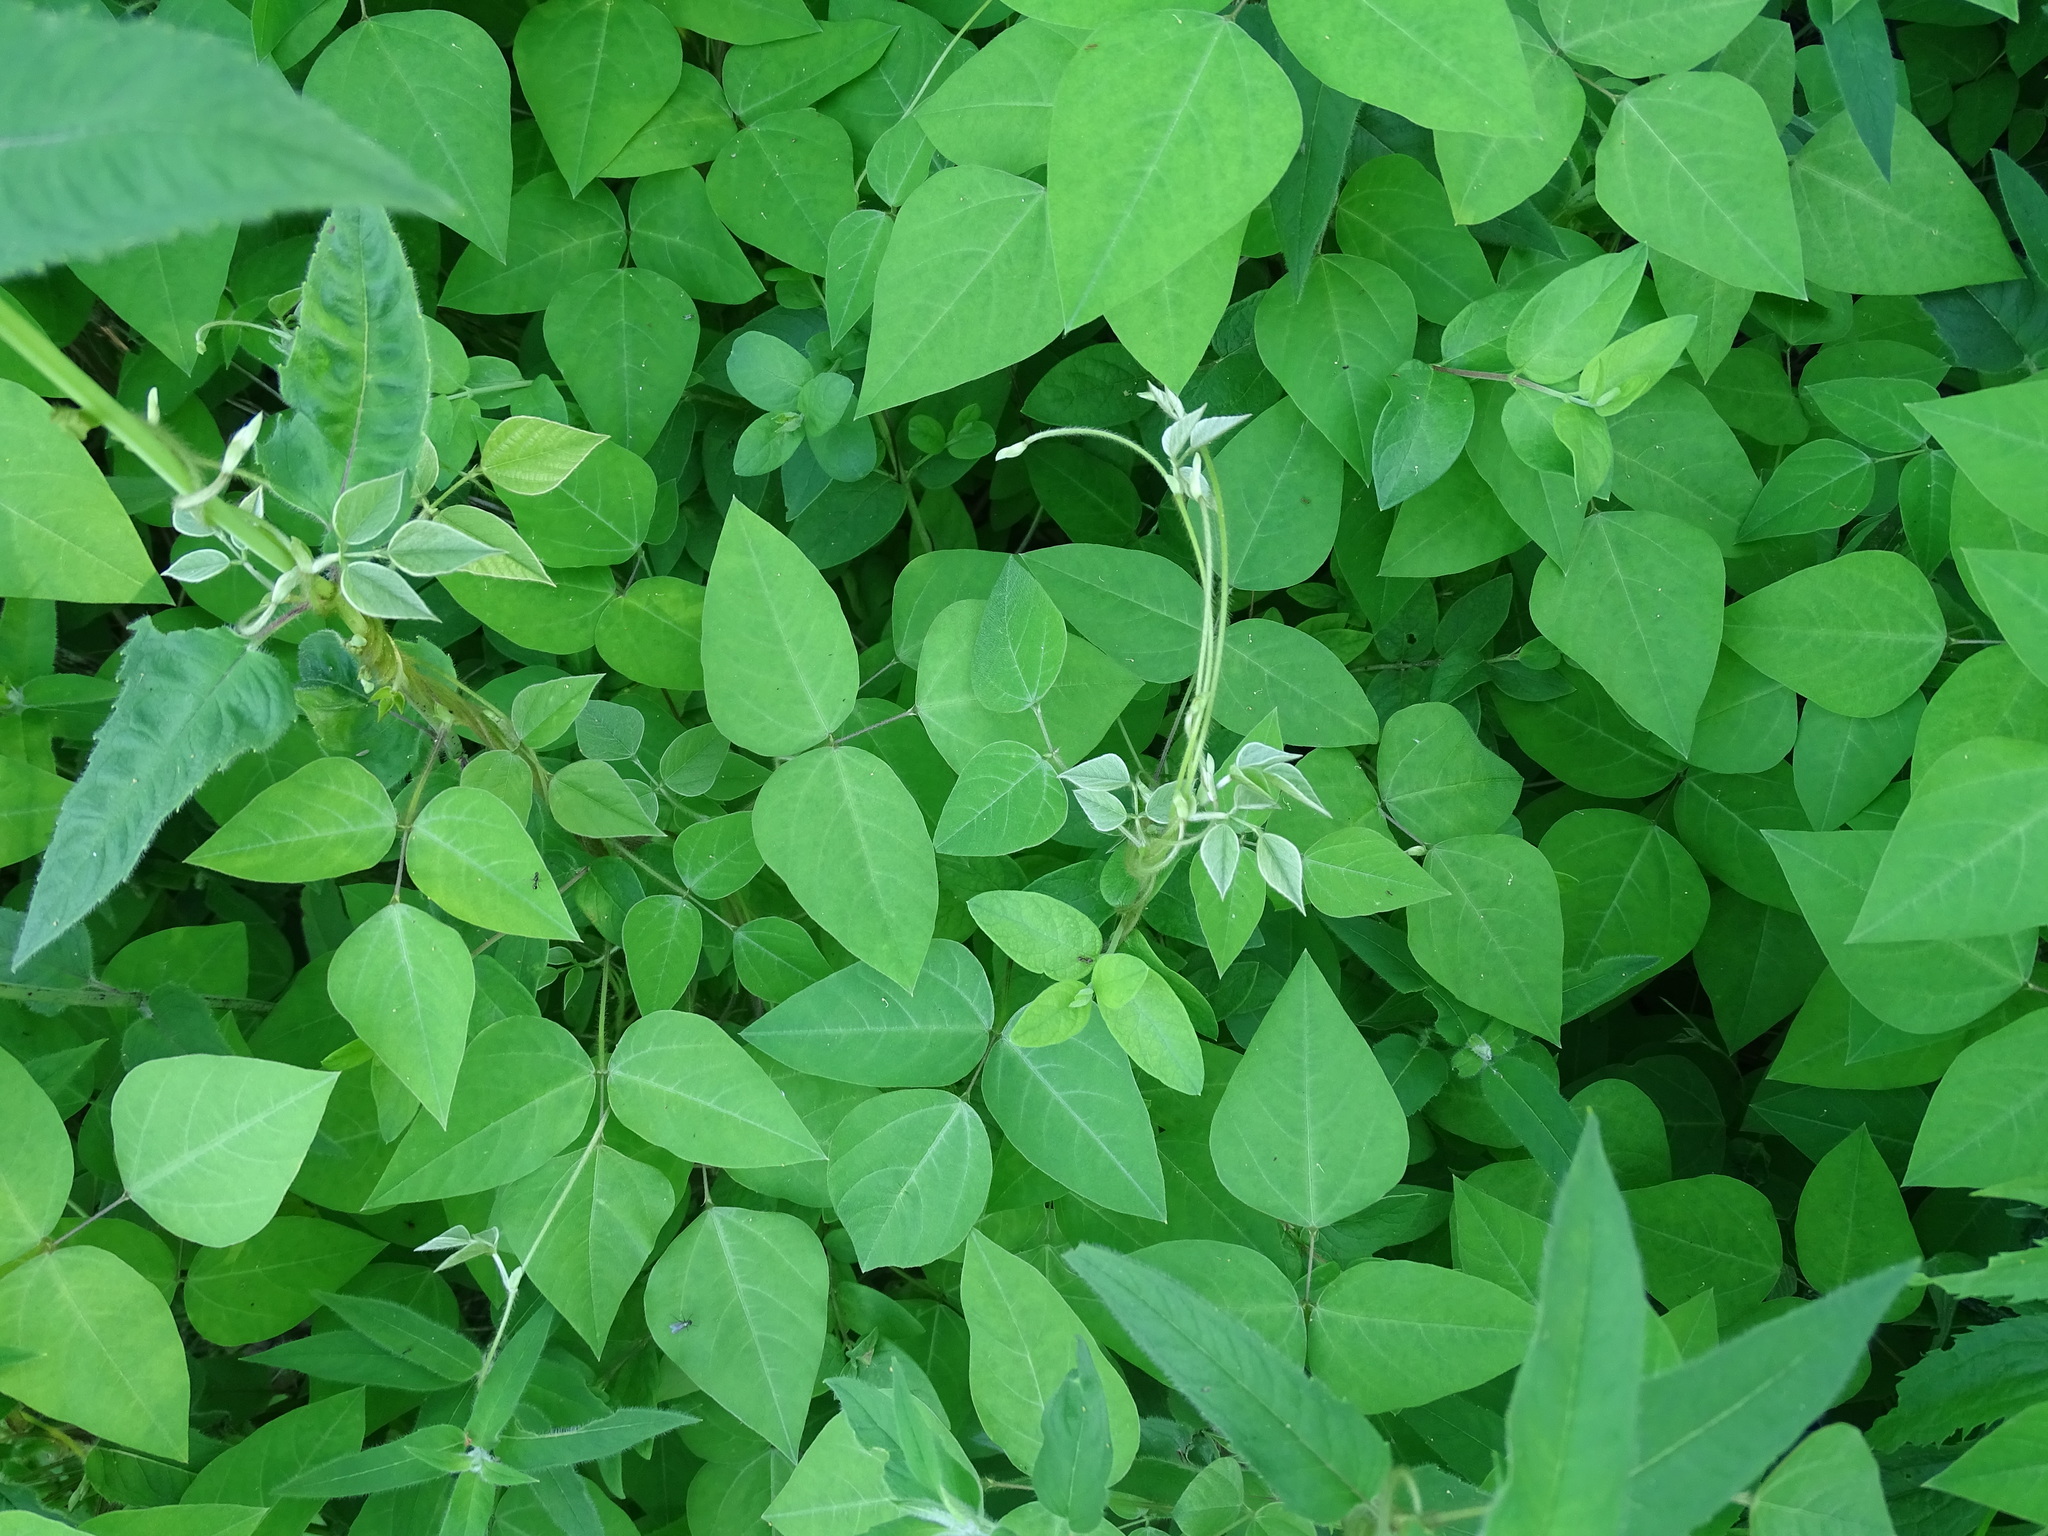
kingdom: Plantae
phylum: Tracheophyta
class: Magnoliopsida
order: Fabales
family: Fabaceae
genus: Amphicarpaea
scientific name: Amphicarpaea bracteata
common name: American hog peanut
